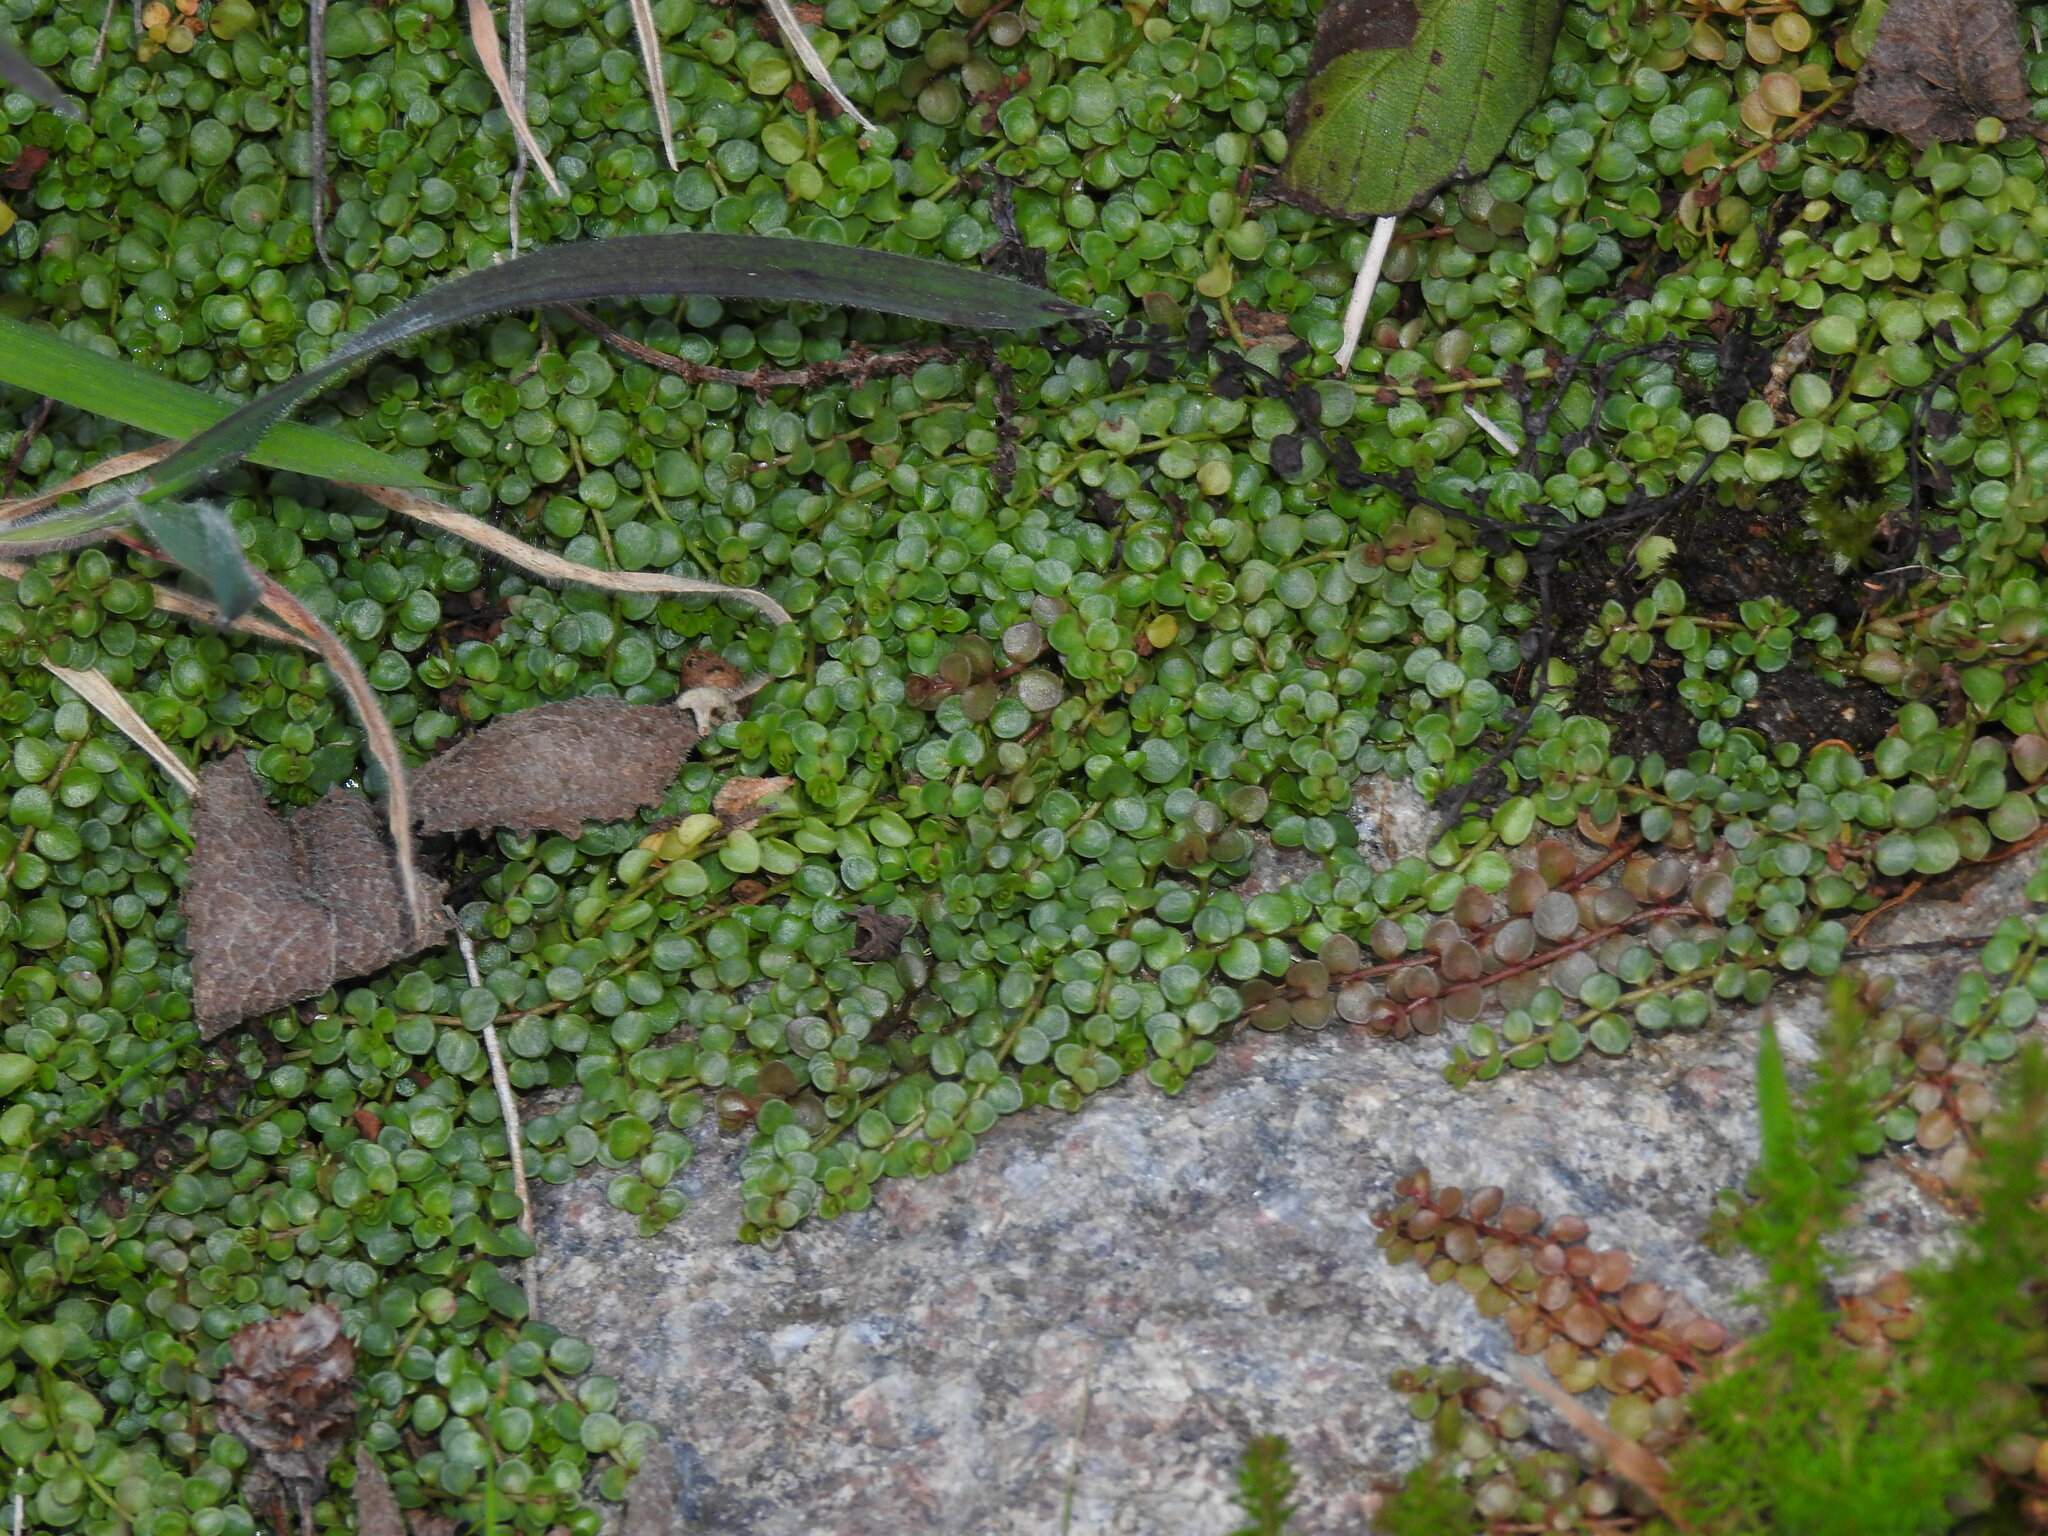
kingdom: Plantae
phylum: Tracheophyta
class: Magnoliopsida
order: Ericales
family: Primulaceae
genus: Lysimachia
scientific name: Lysimachia tenella
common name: European bog pimpernel
